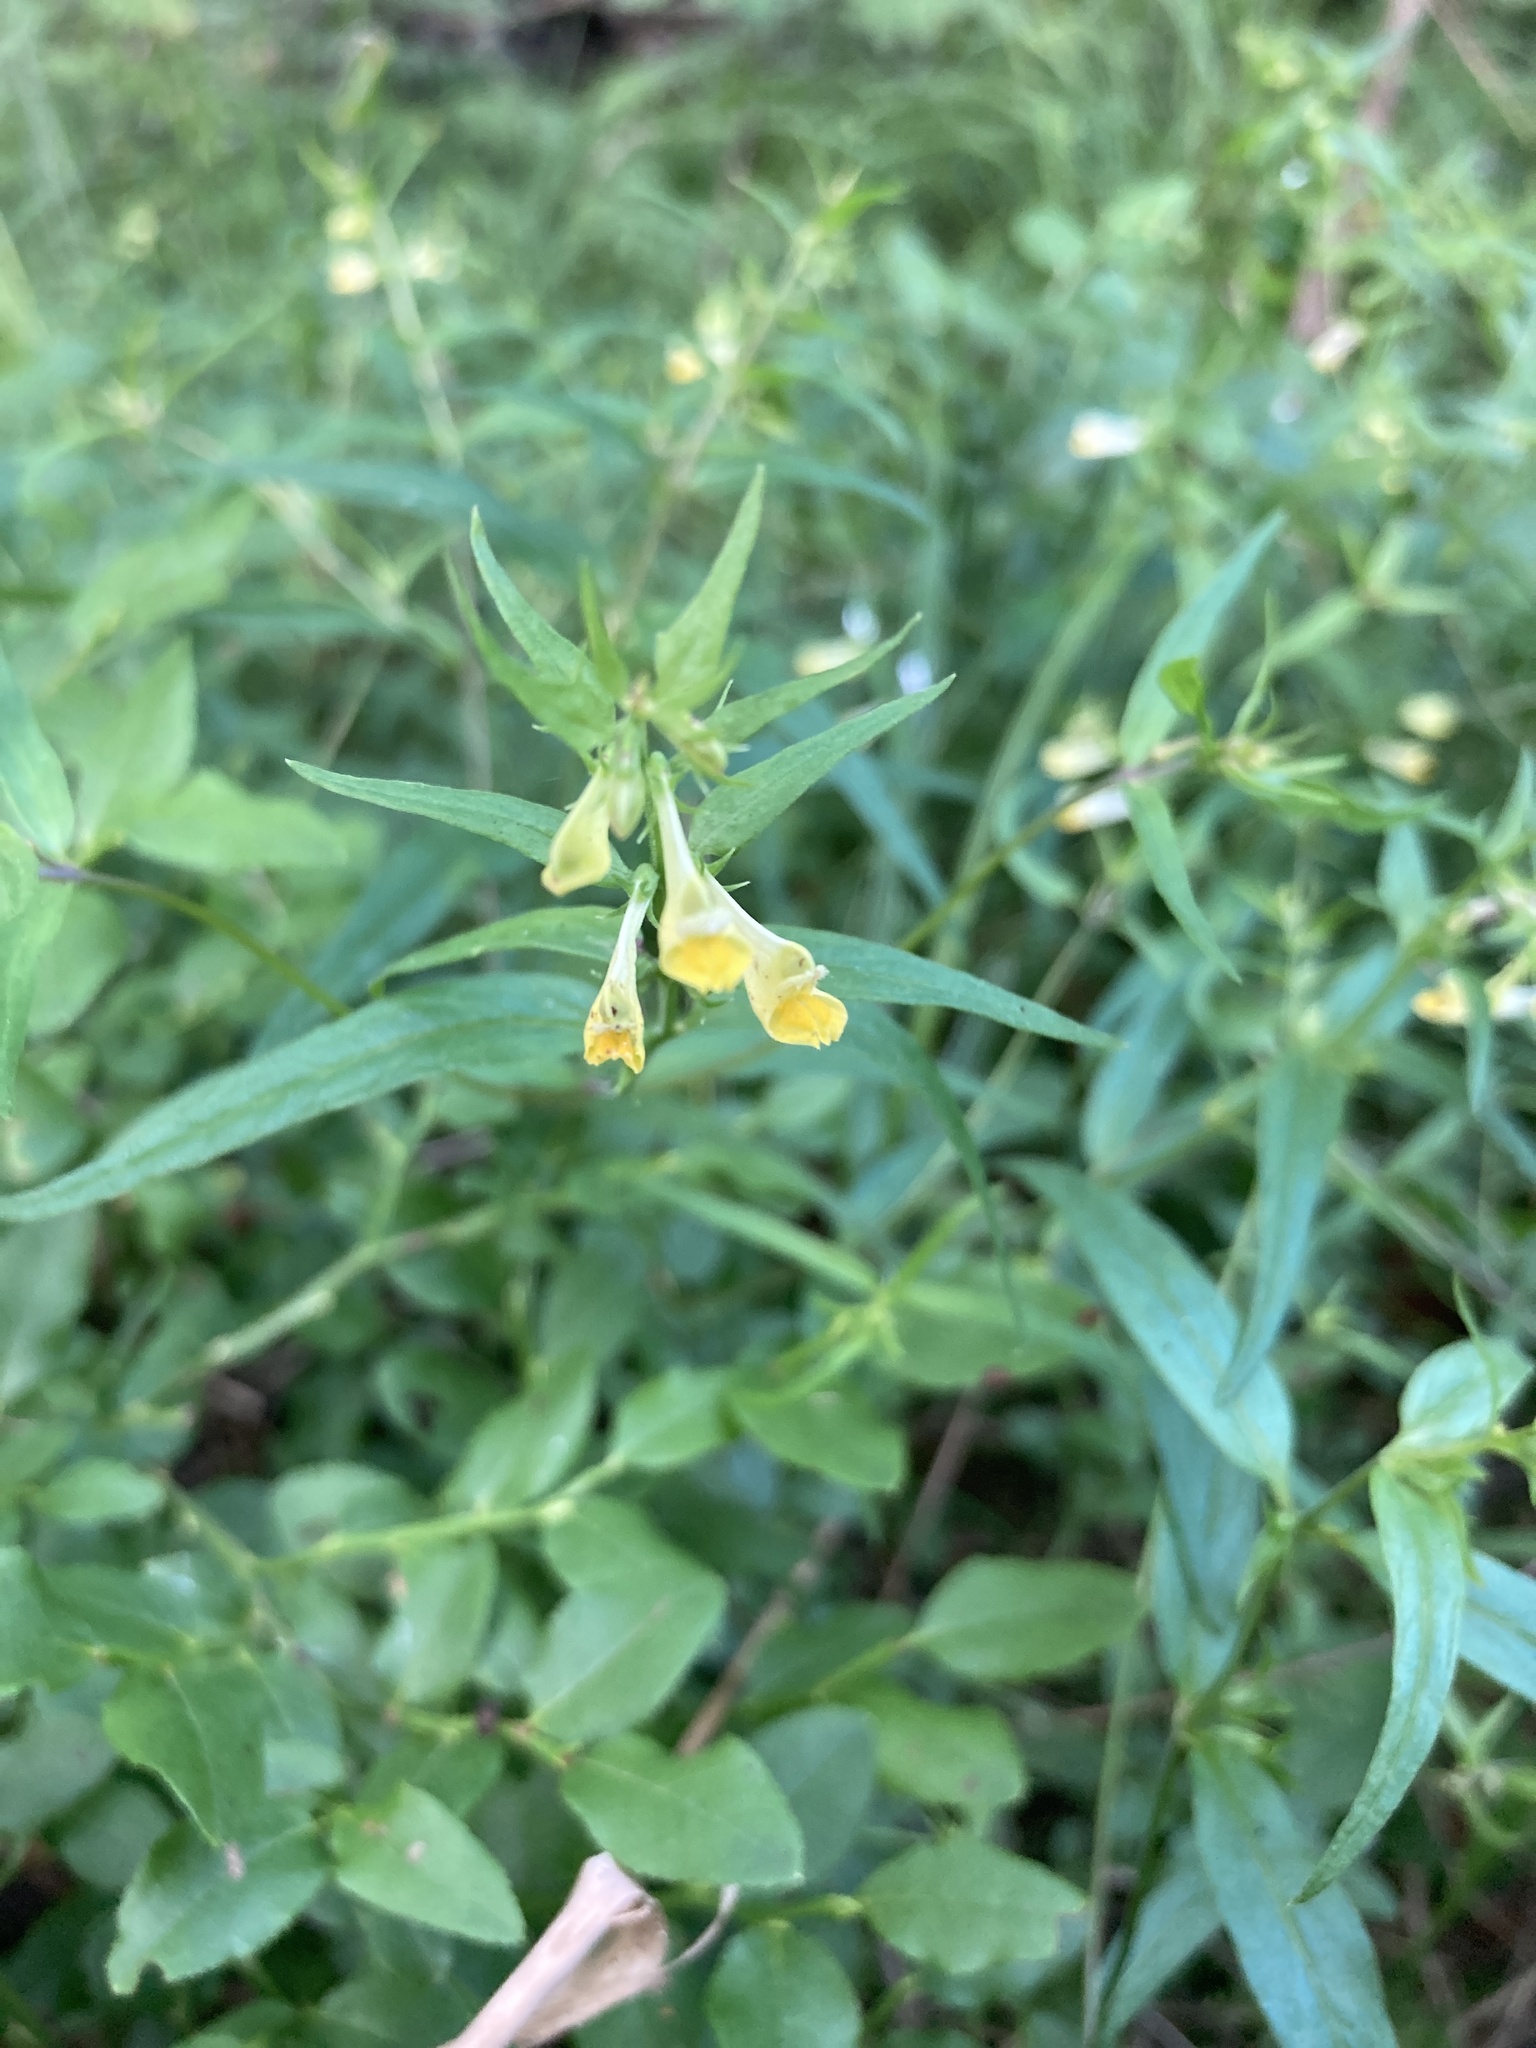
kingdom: Plantae
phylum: Tracheophyta
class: Magnoliopsida
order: Lamiales
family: Orobanchaceae
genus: Melampyrum
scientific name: Melampyrum pratense
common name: Common cow-wheat
